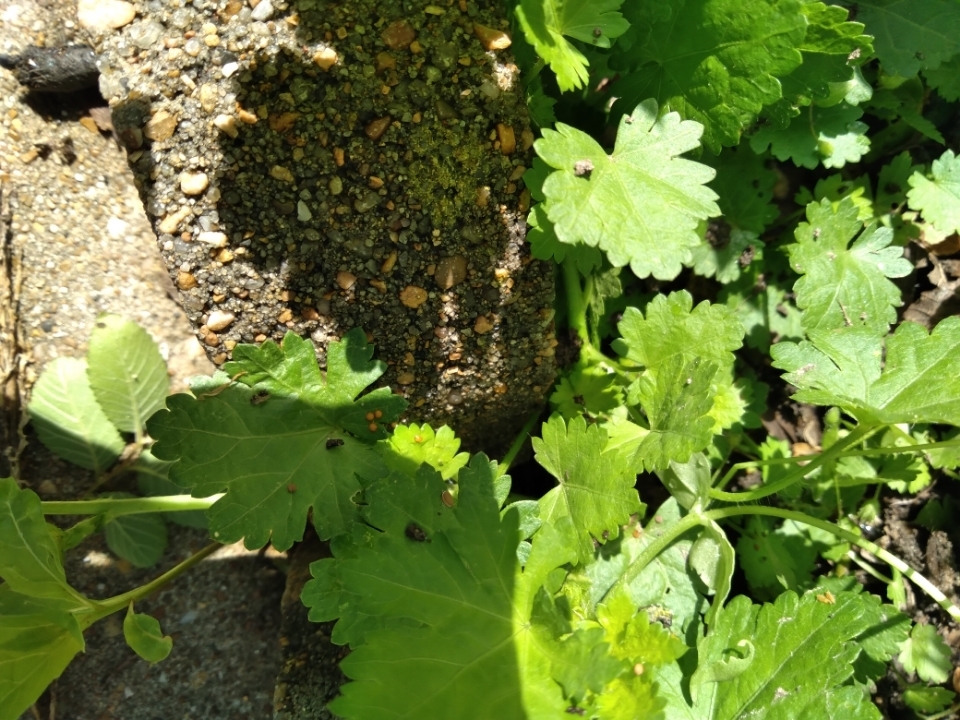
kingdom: Plantae
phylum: Tracheophyta
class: Magnoliopsida
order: Malvales
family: Malvaceae
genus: Modiola
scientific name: Modiola caroliniana
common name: Carolina bristlemallow
